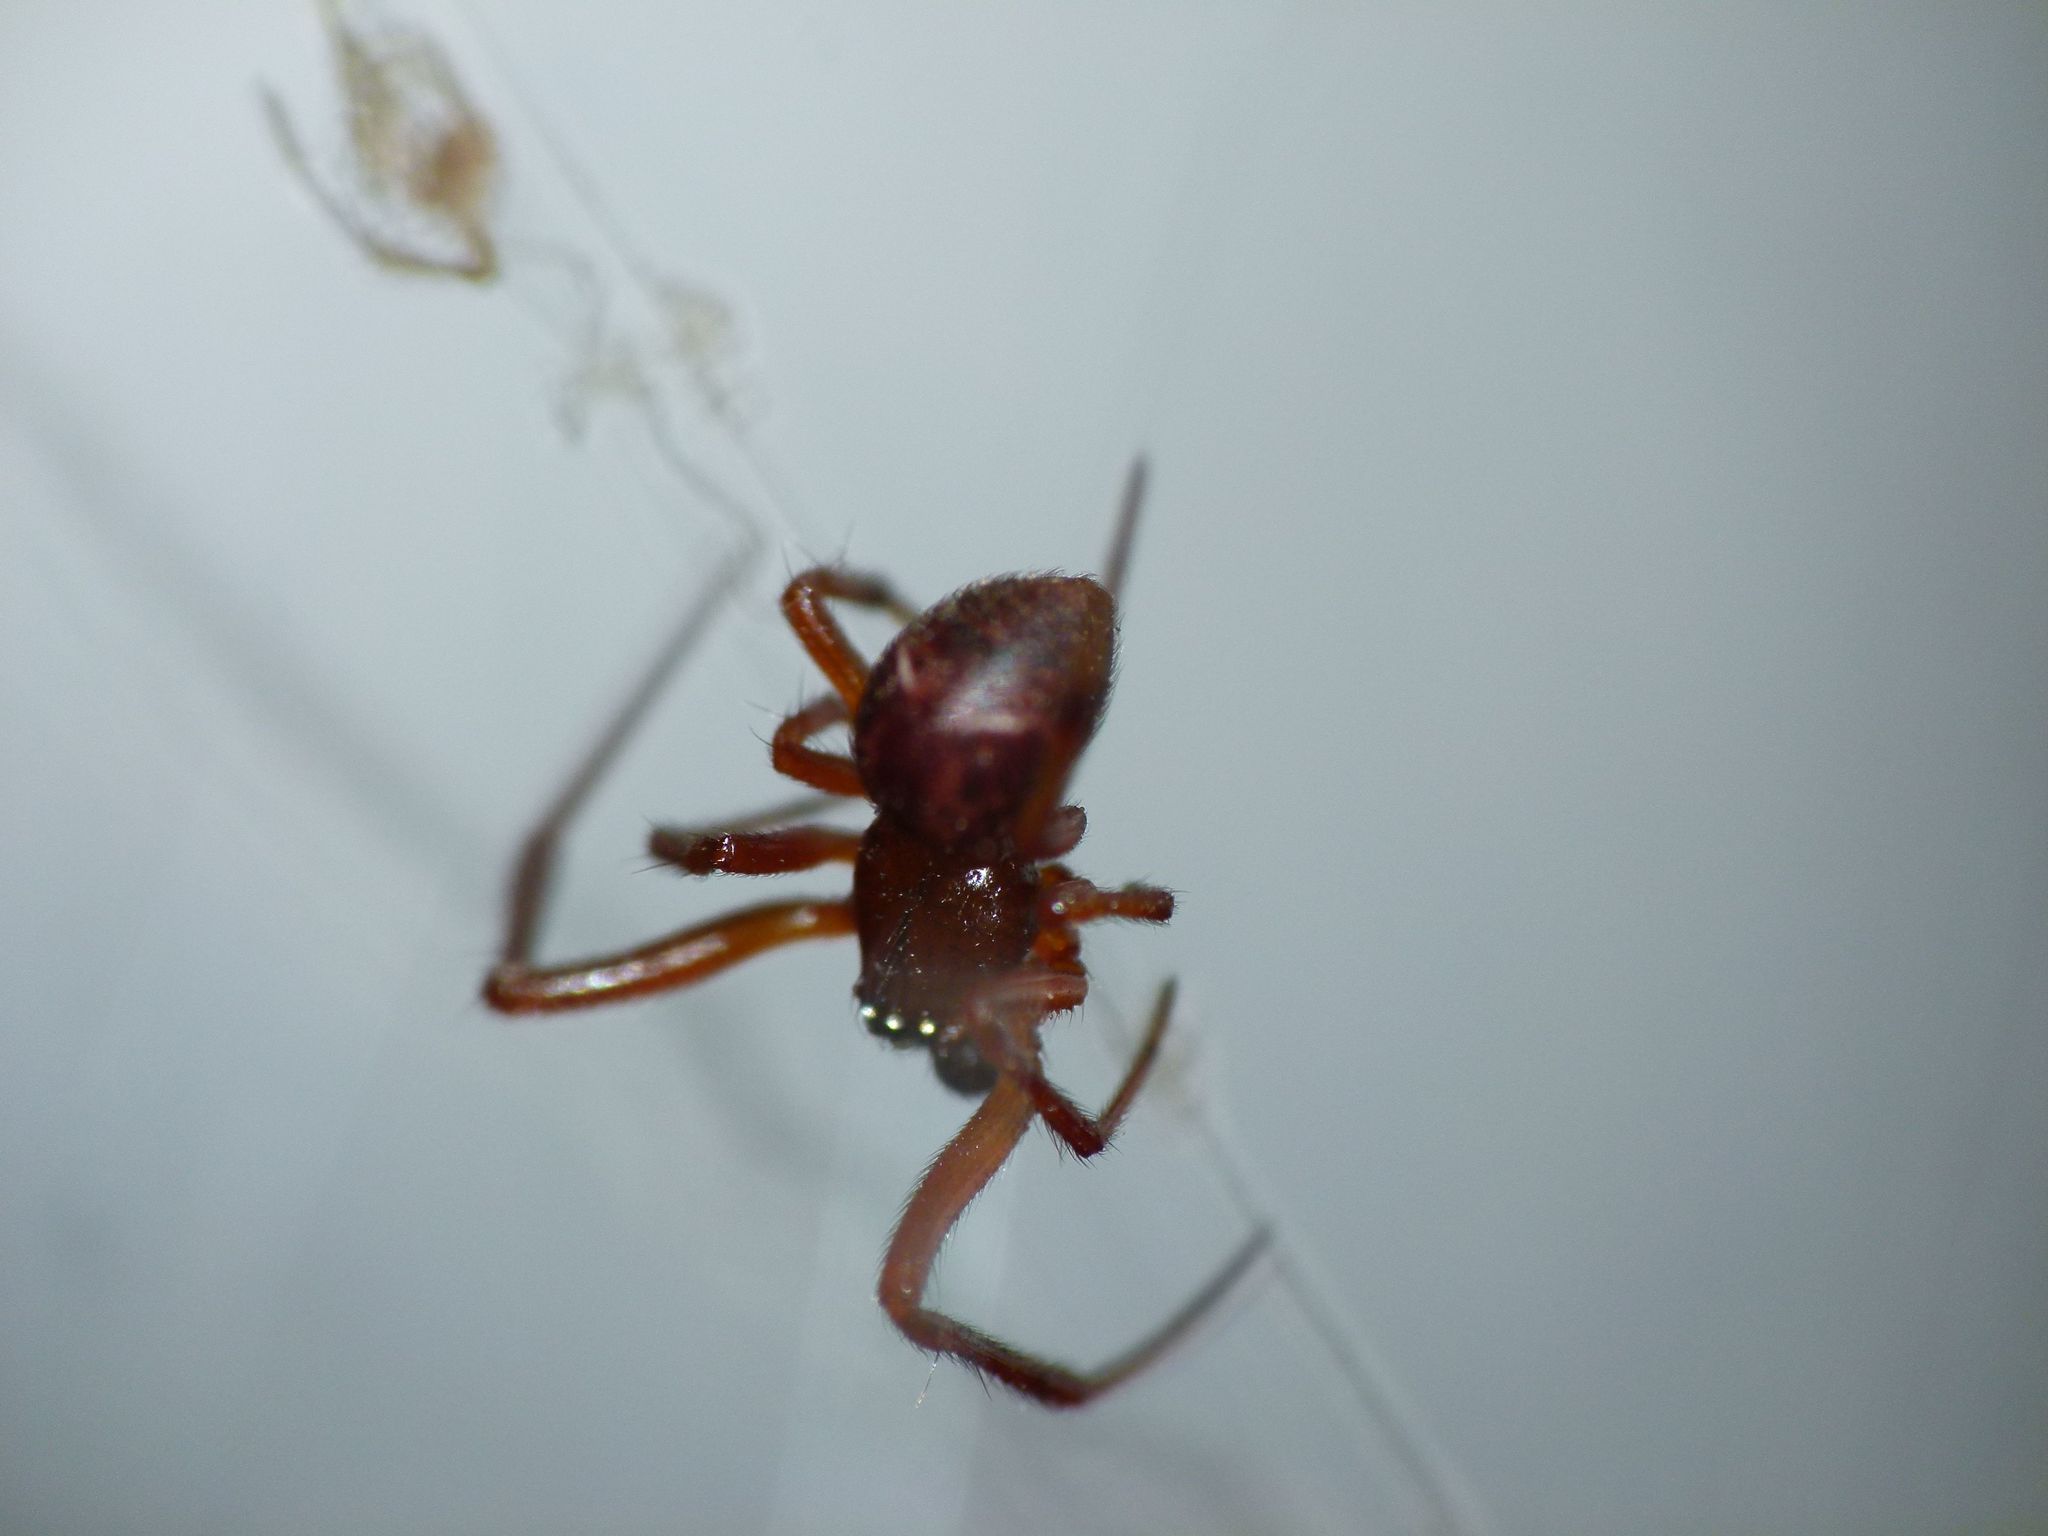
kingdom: Animalia
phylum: Arthropoda
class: Arachnida
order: Araneae
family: Theridiidae
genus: Parasteatoda
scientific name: Parasteatoda decorata
